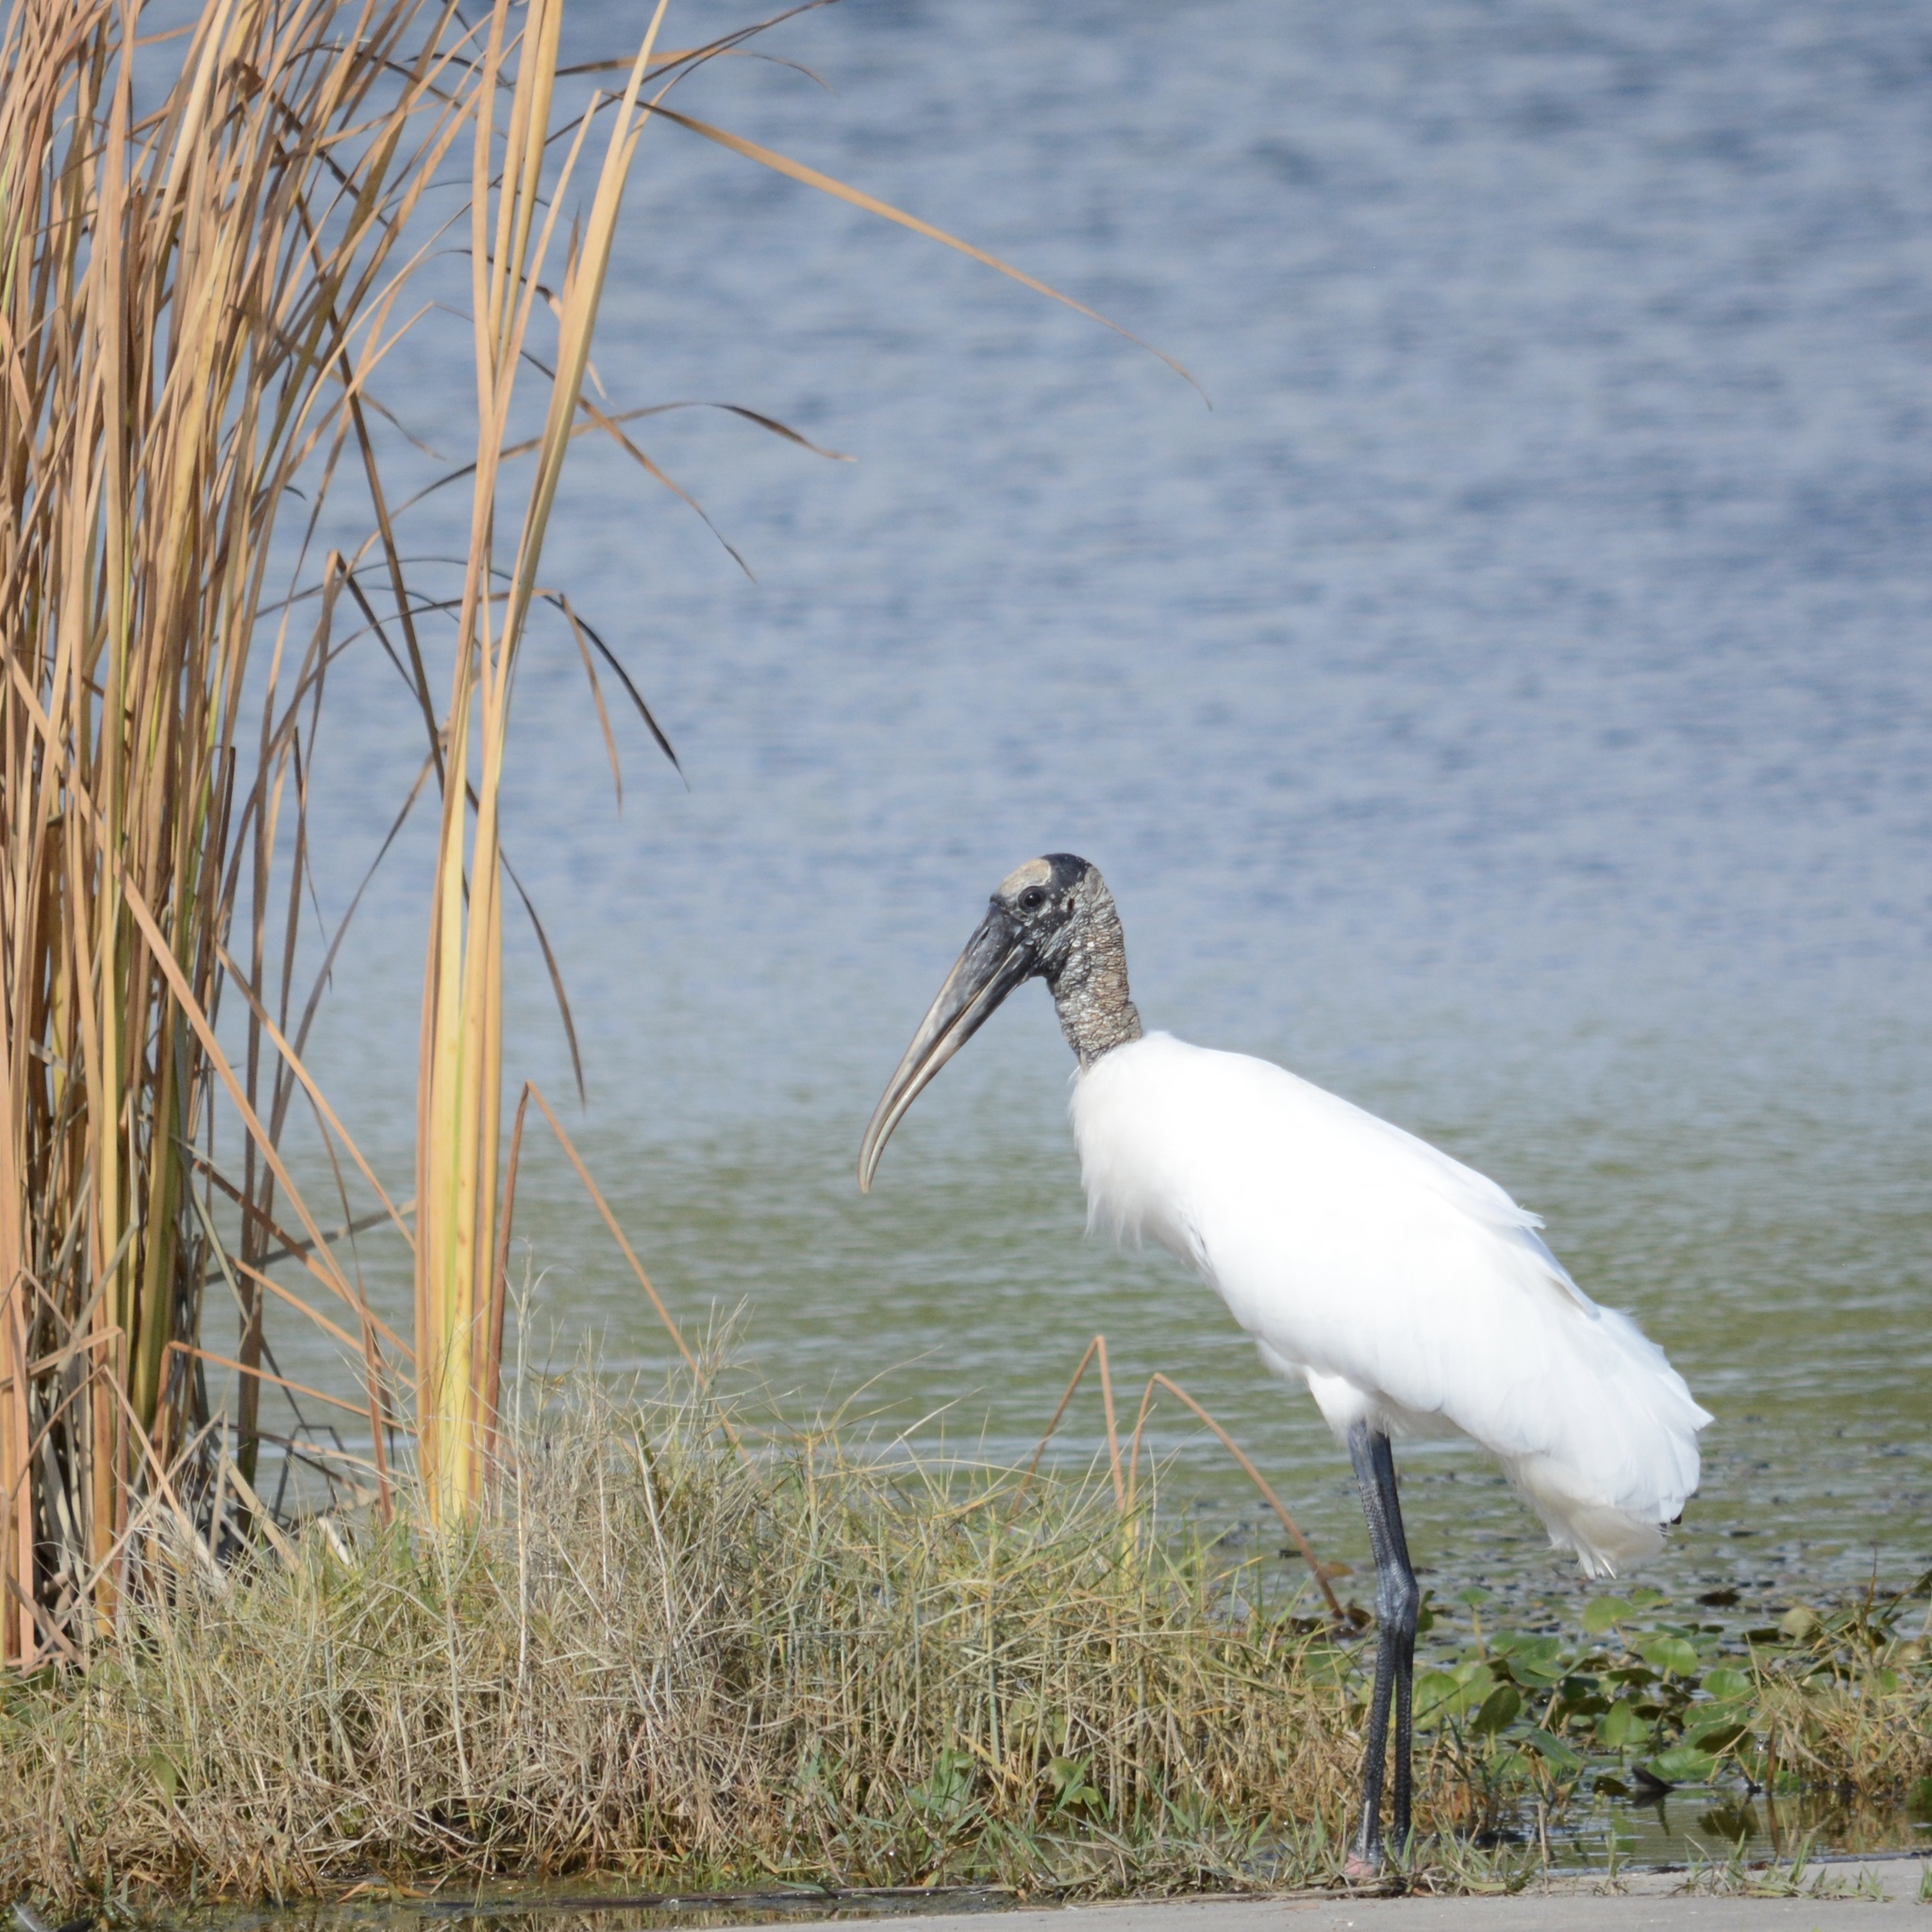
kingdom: Animalia
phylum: Chordata
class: Aves
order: Ciconiiformes
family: Ciconiidae
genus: Mycteria
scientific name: Mycteria americana
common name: Wood stork
